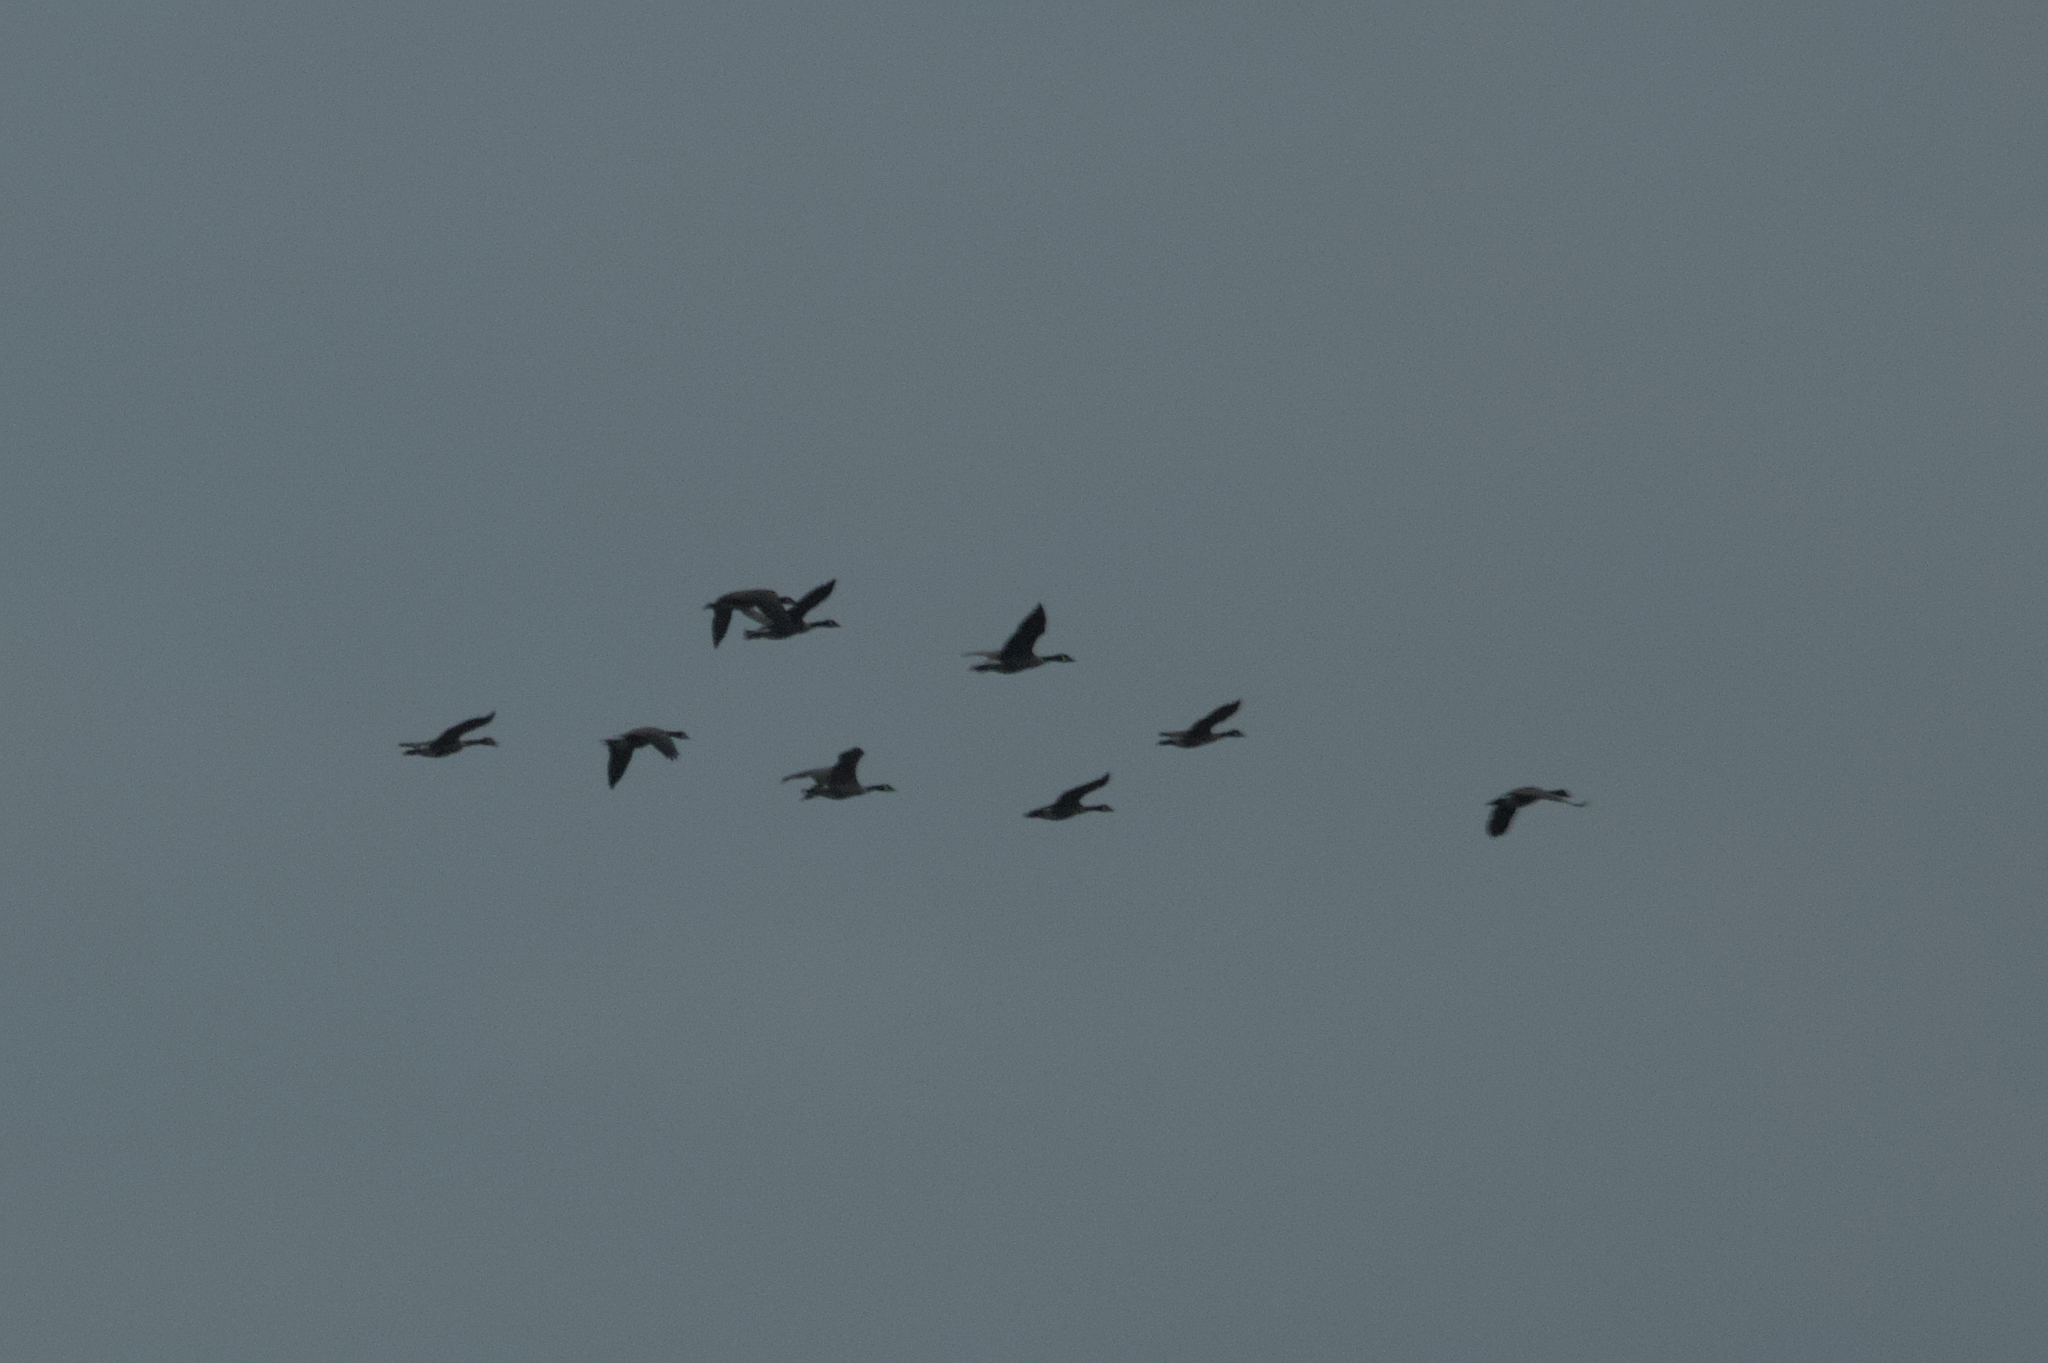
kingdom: Animalia
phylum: Chordata
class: Aves
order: Anseriformes
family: Anatidae
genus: Branta
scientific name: Branta canadensis
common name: Canada goose
